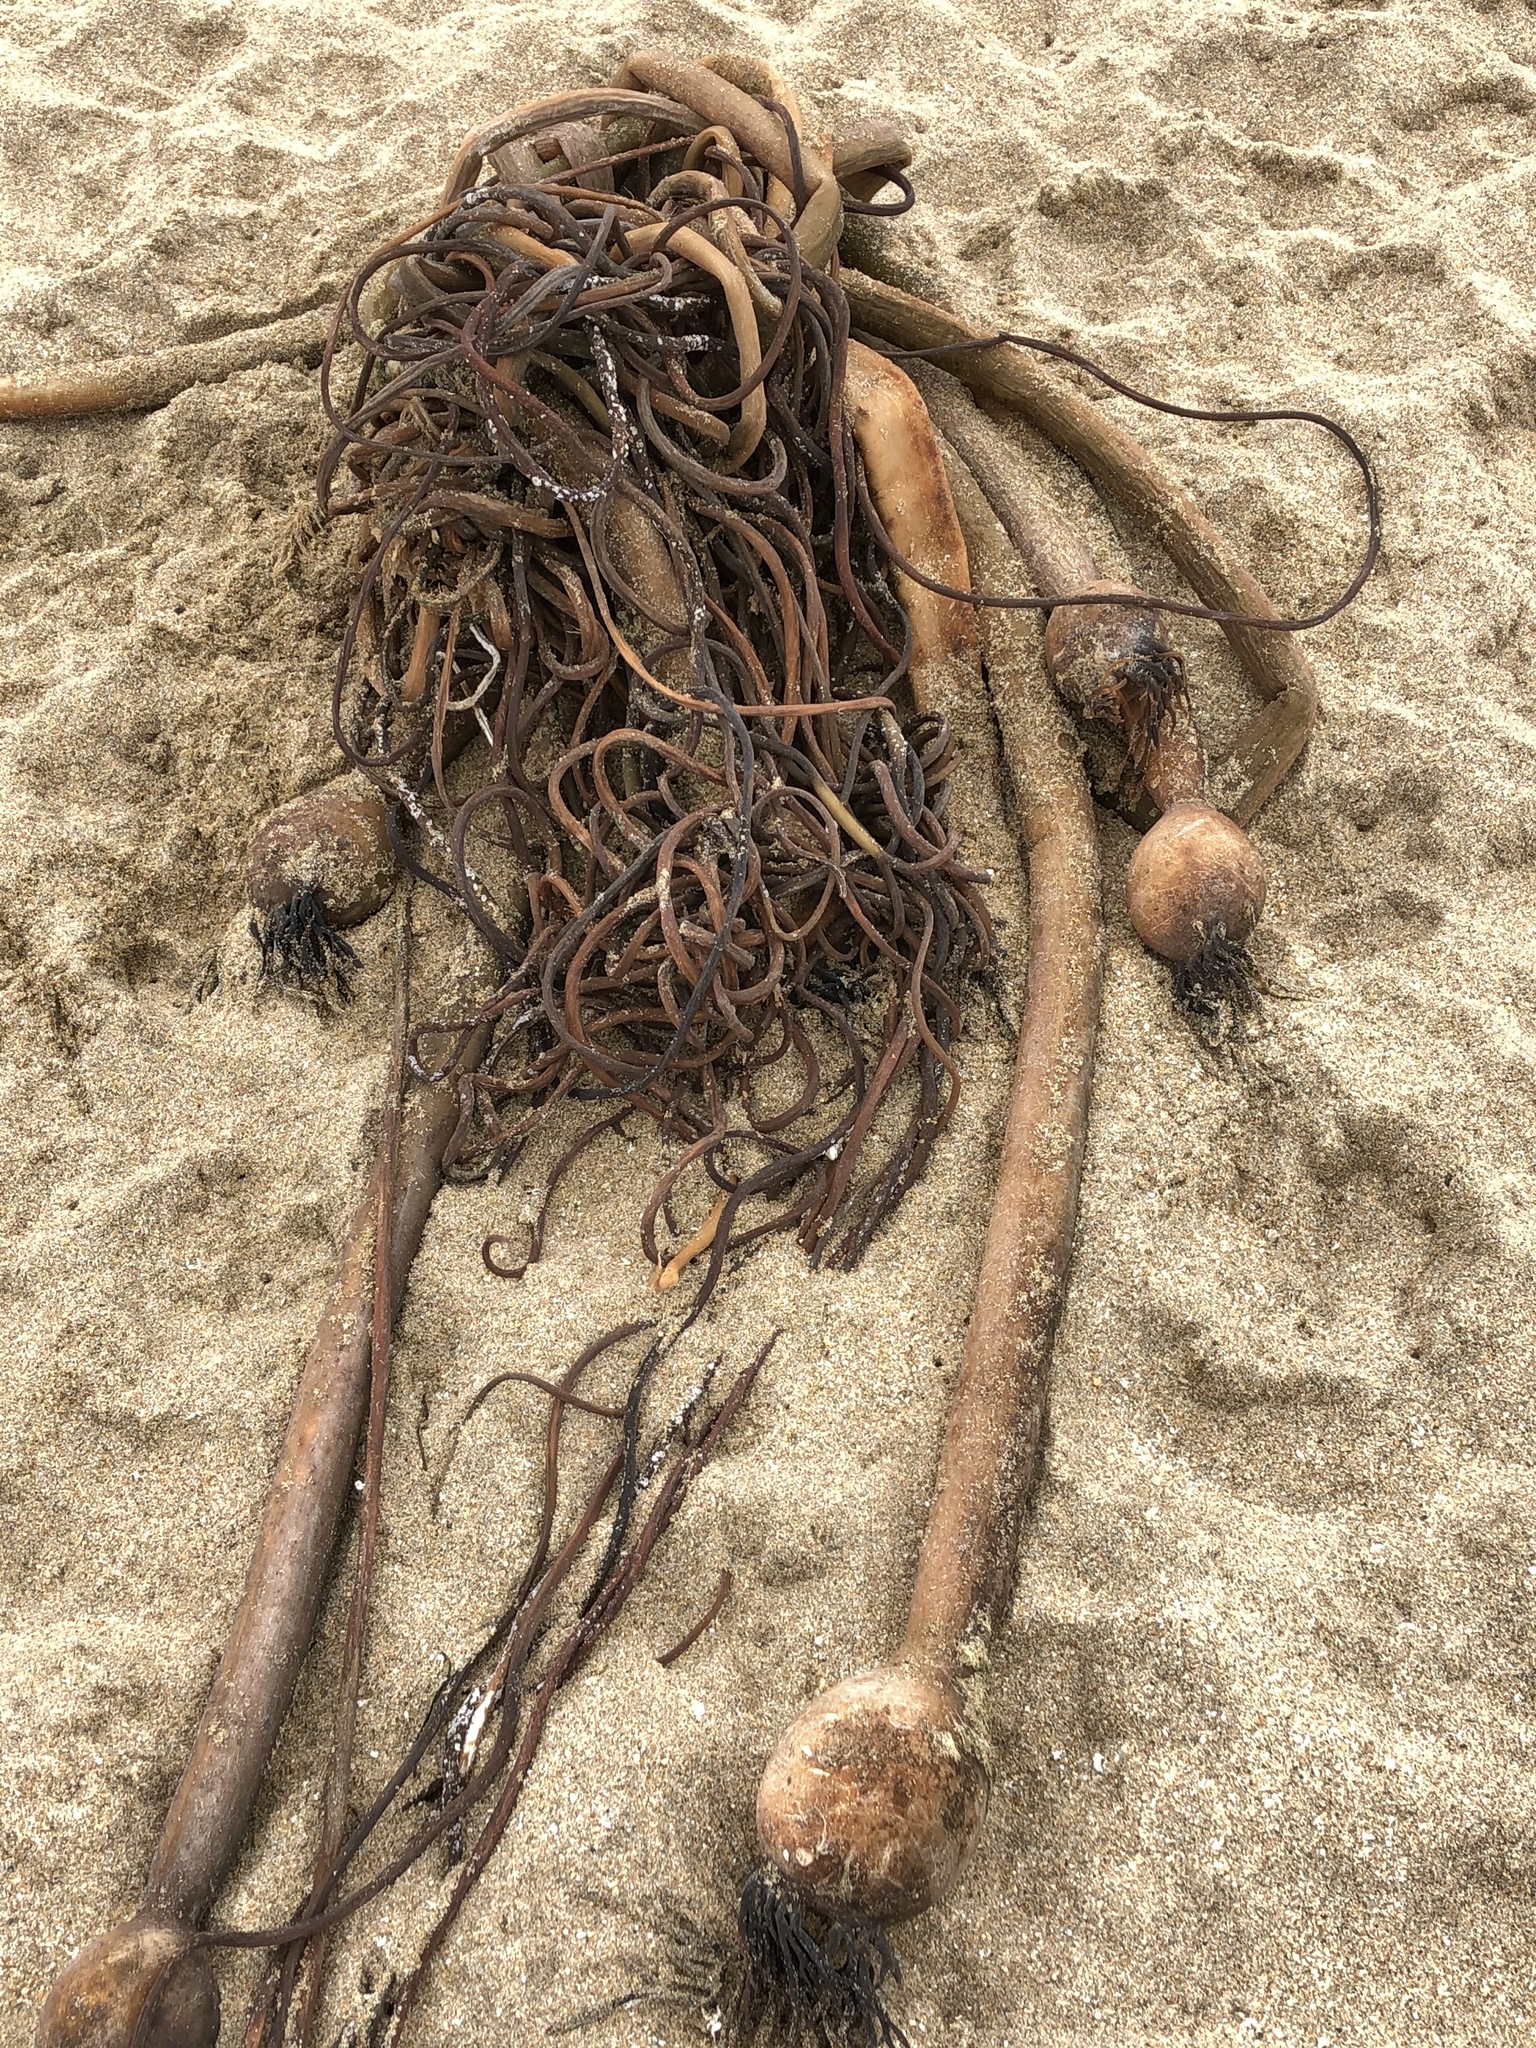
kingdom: Chromista
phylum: Ochrophyta
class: Phaeophyceae
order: Laminariales
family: Laminariaceae
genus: Nereocystis
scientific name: Nereocystis luetkeana
